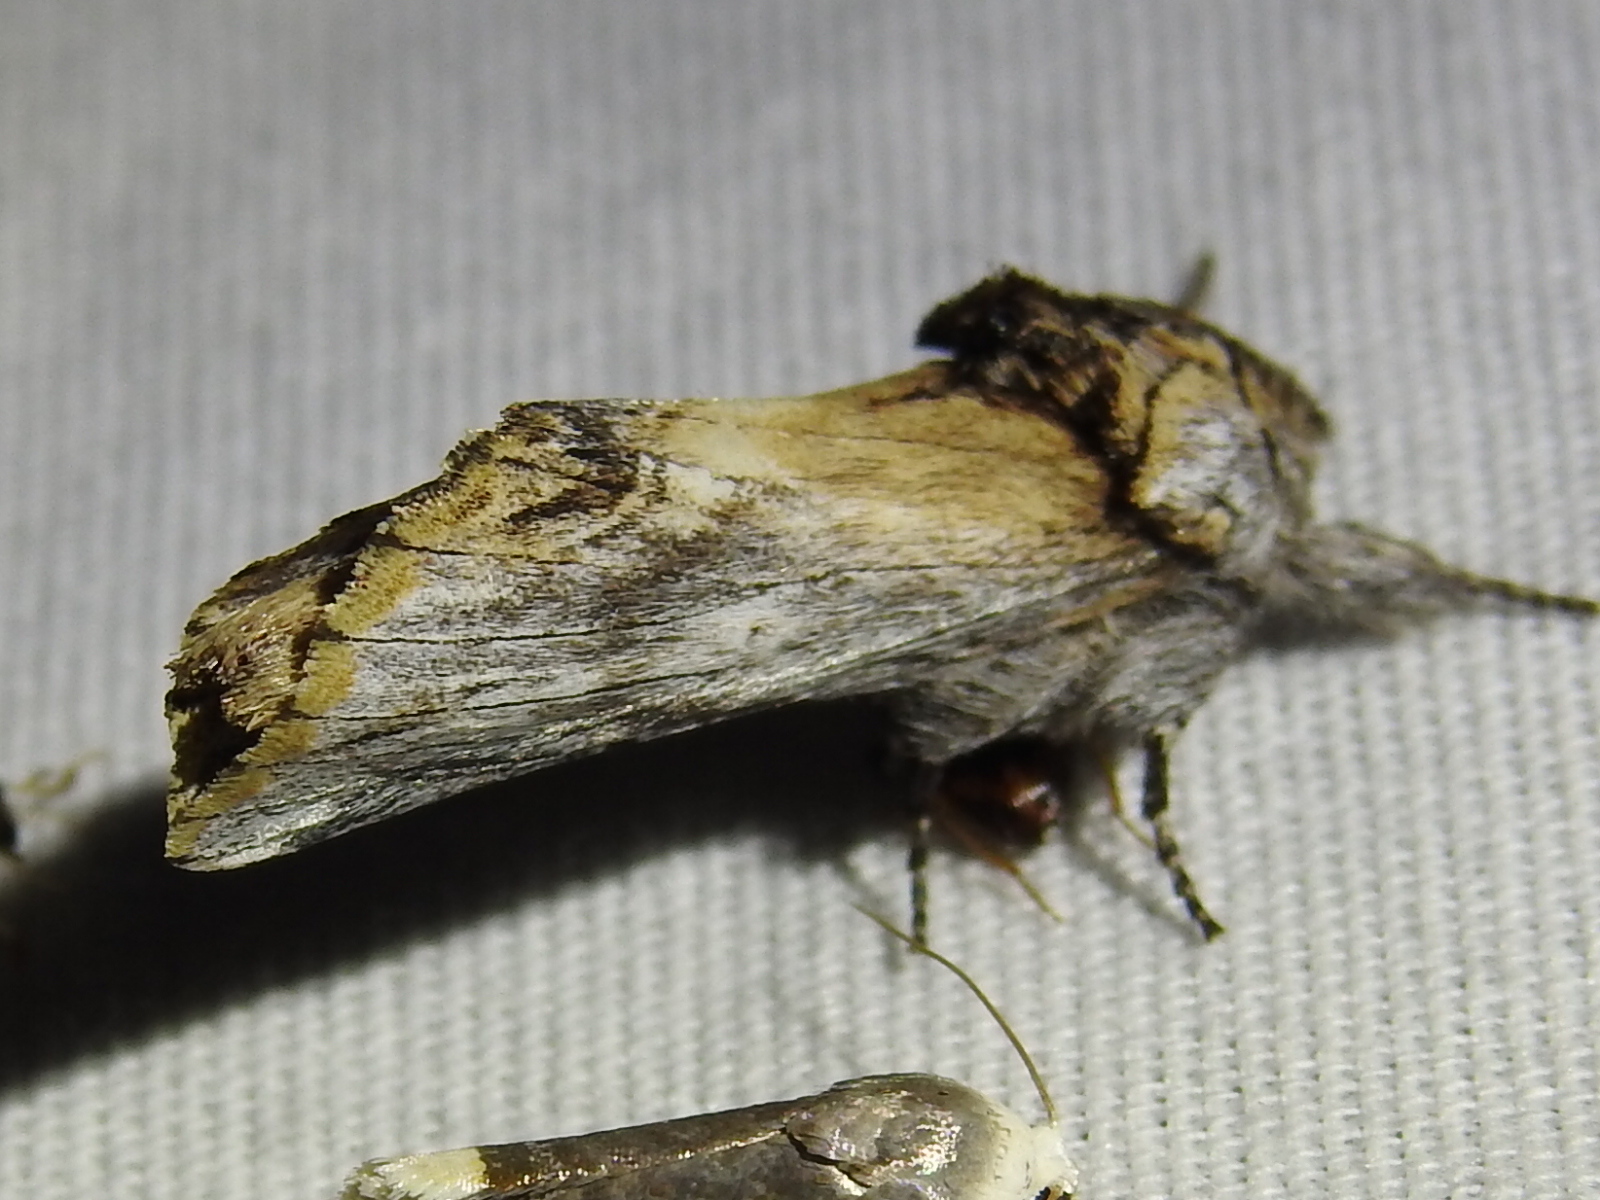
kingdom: Animalia
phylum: Arthropoda
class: Insecta
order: Lepidoptera
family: Notodontidae
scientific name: Notodontidae
